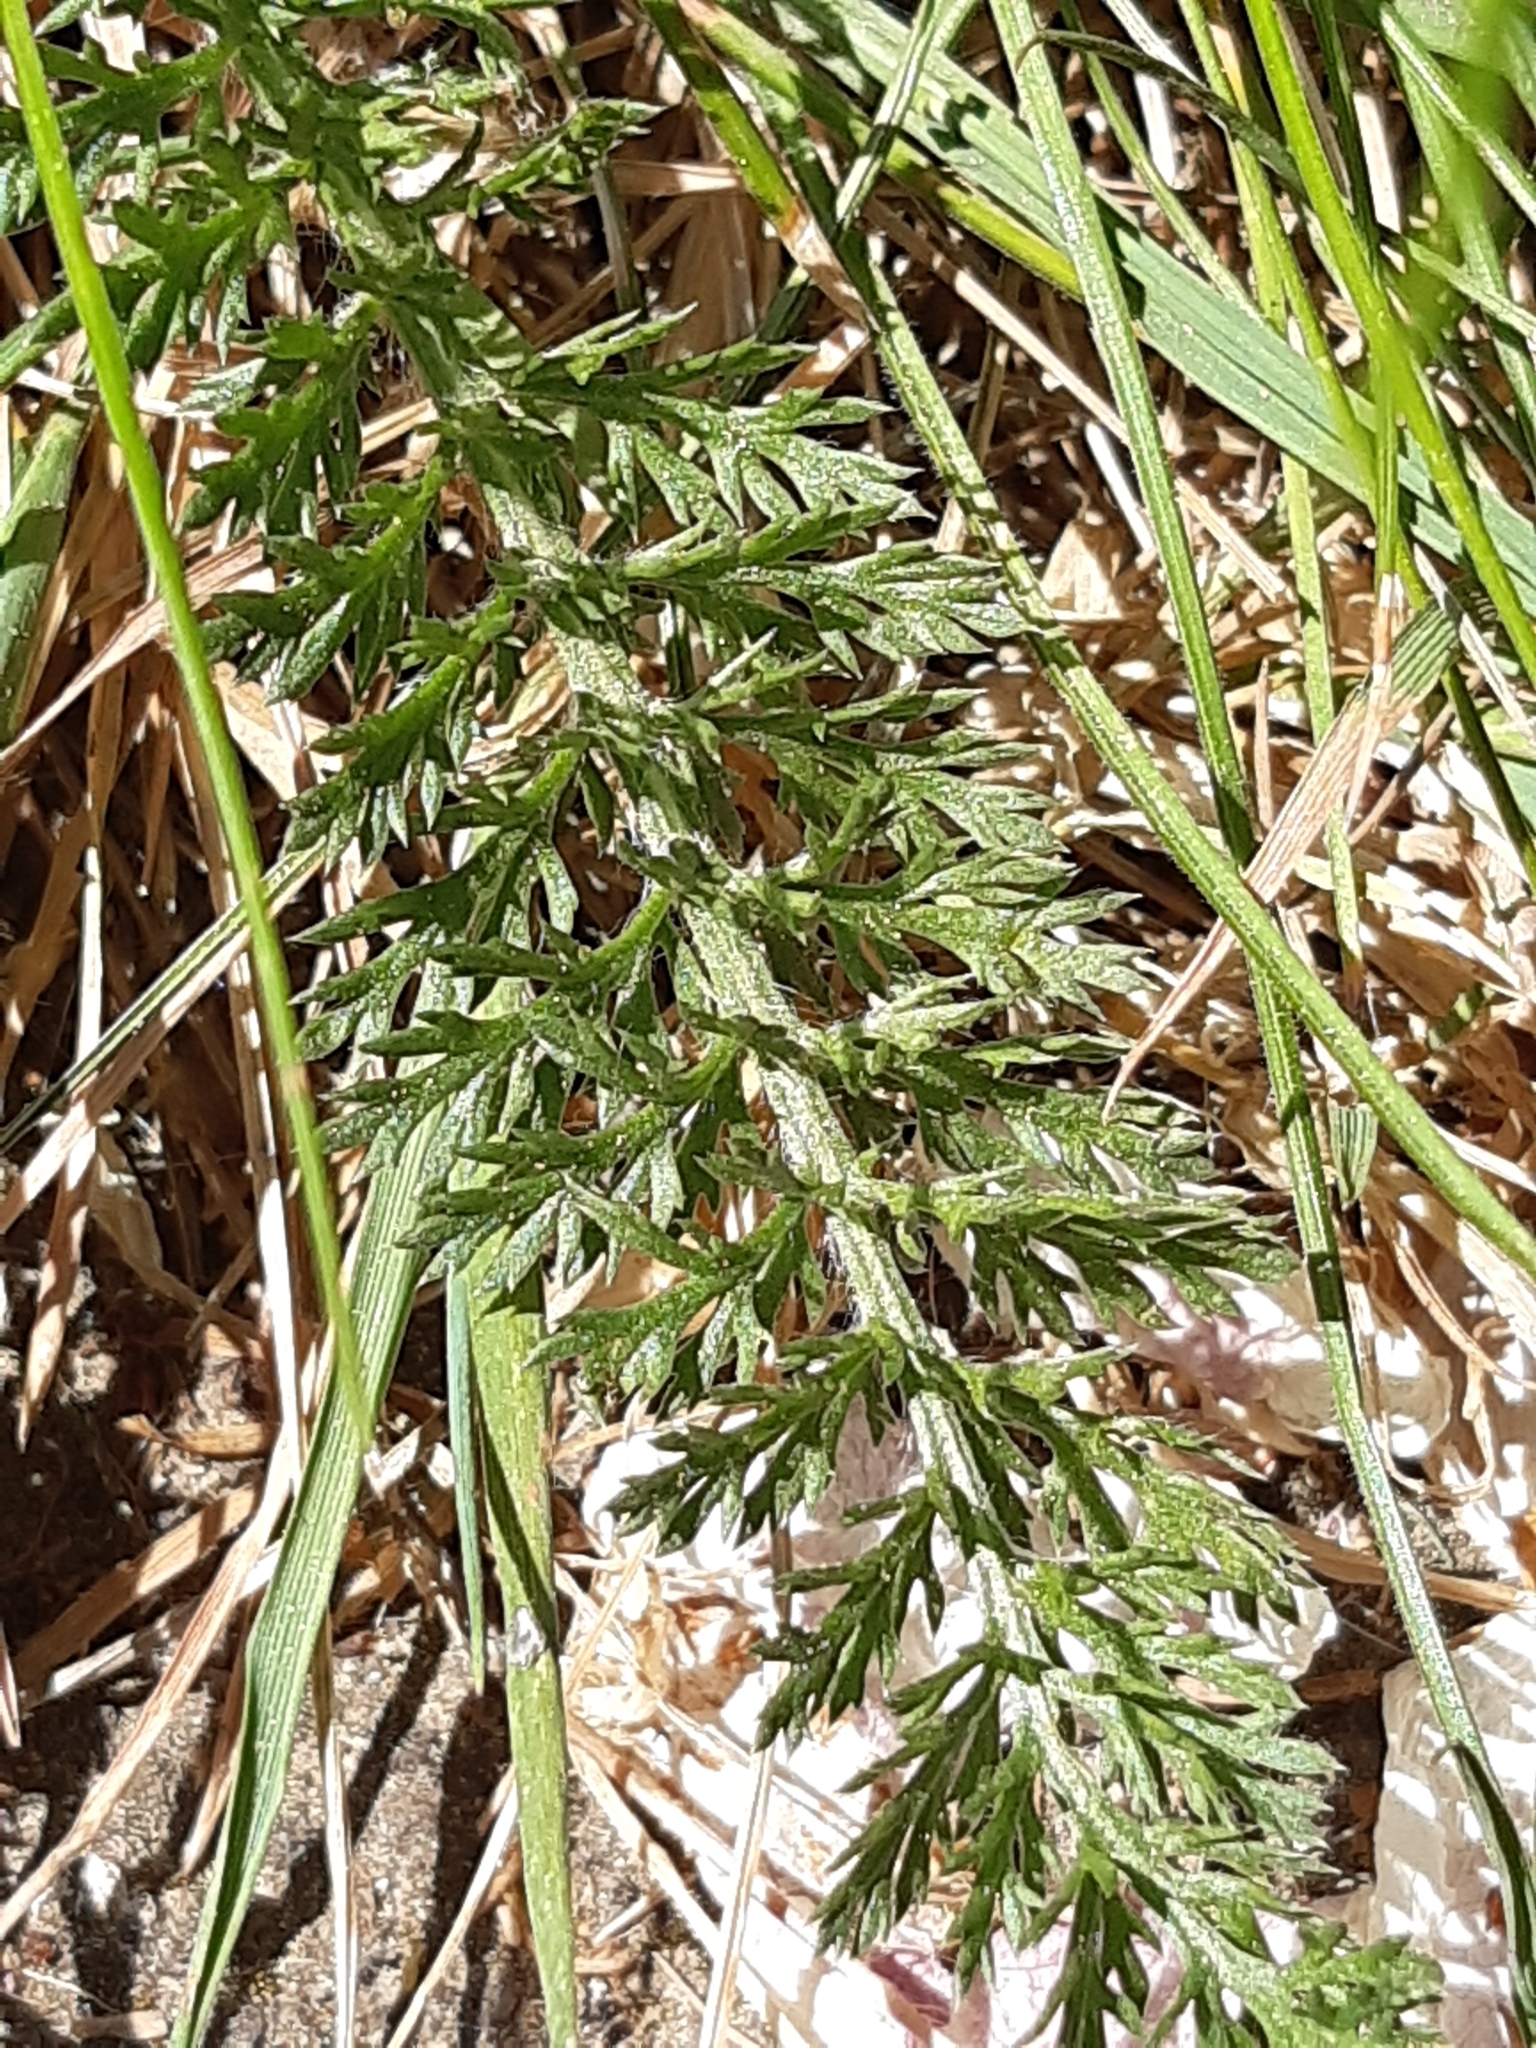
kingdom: Plantae
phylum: Tracheophyta
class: Magnoliopsida
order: Asterales
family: Asteraceae
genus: Achillea
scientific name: Achillea millefolium
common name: Yarrow
